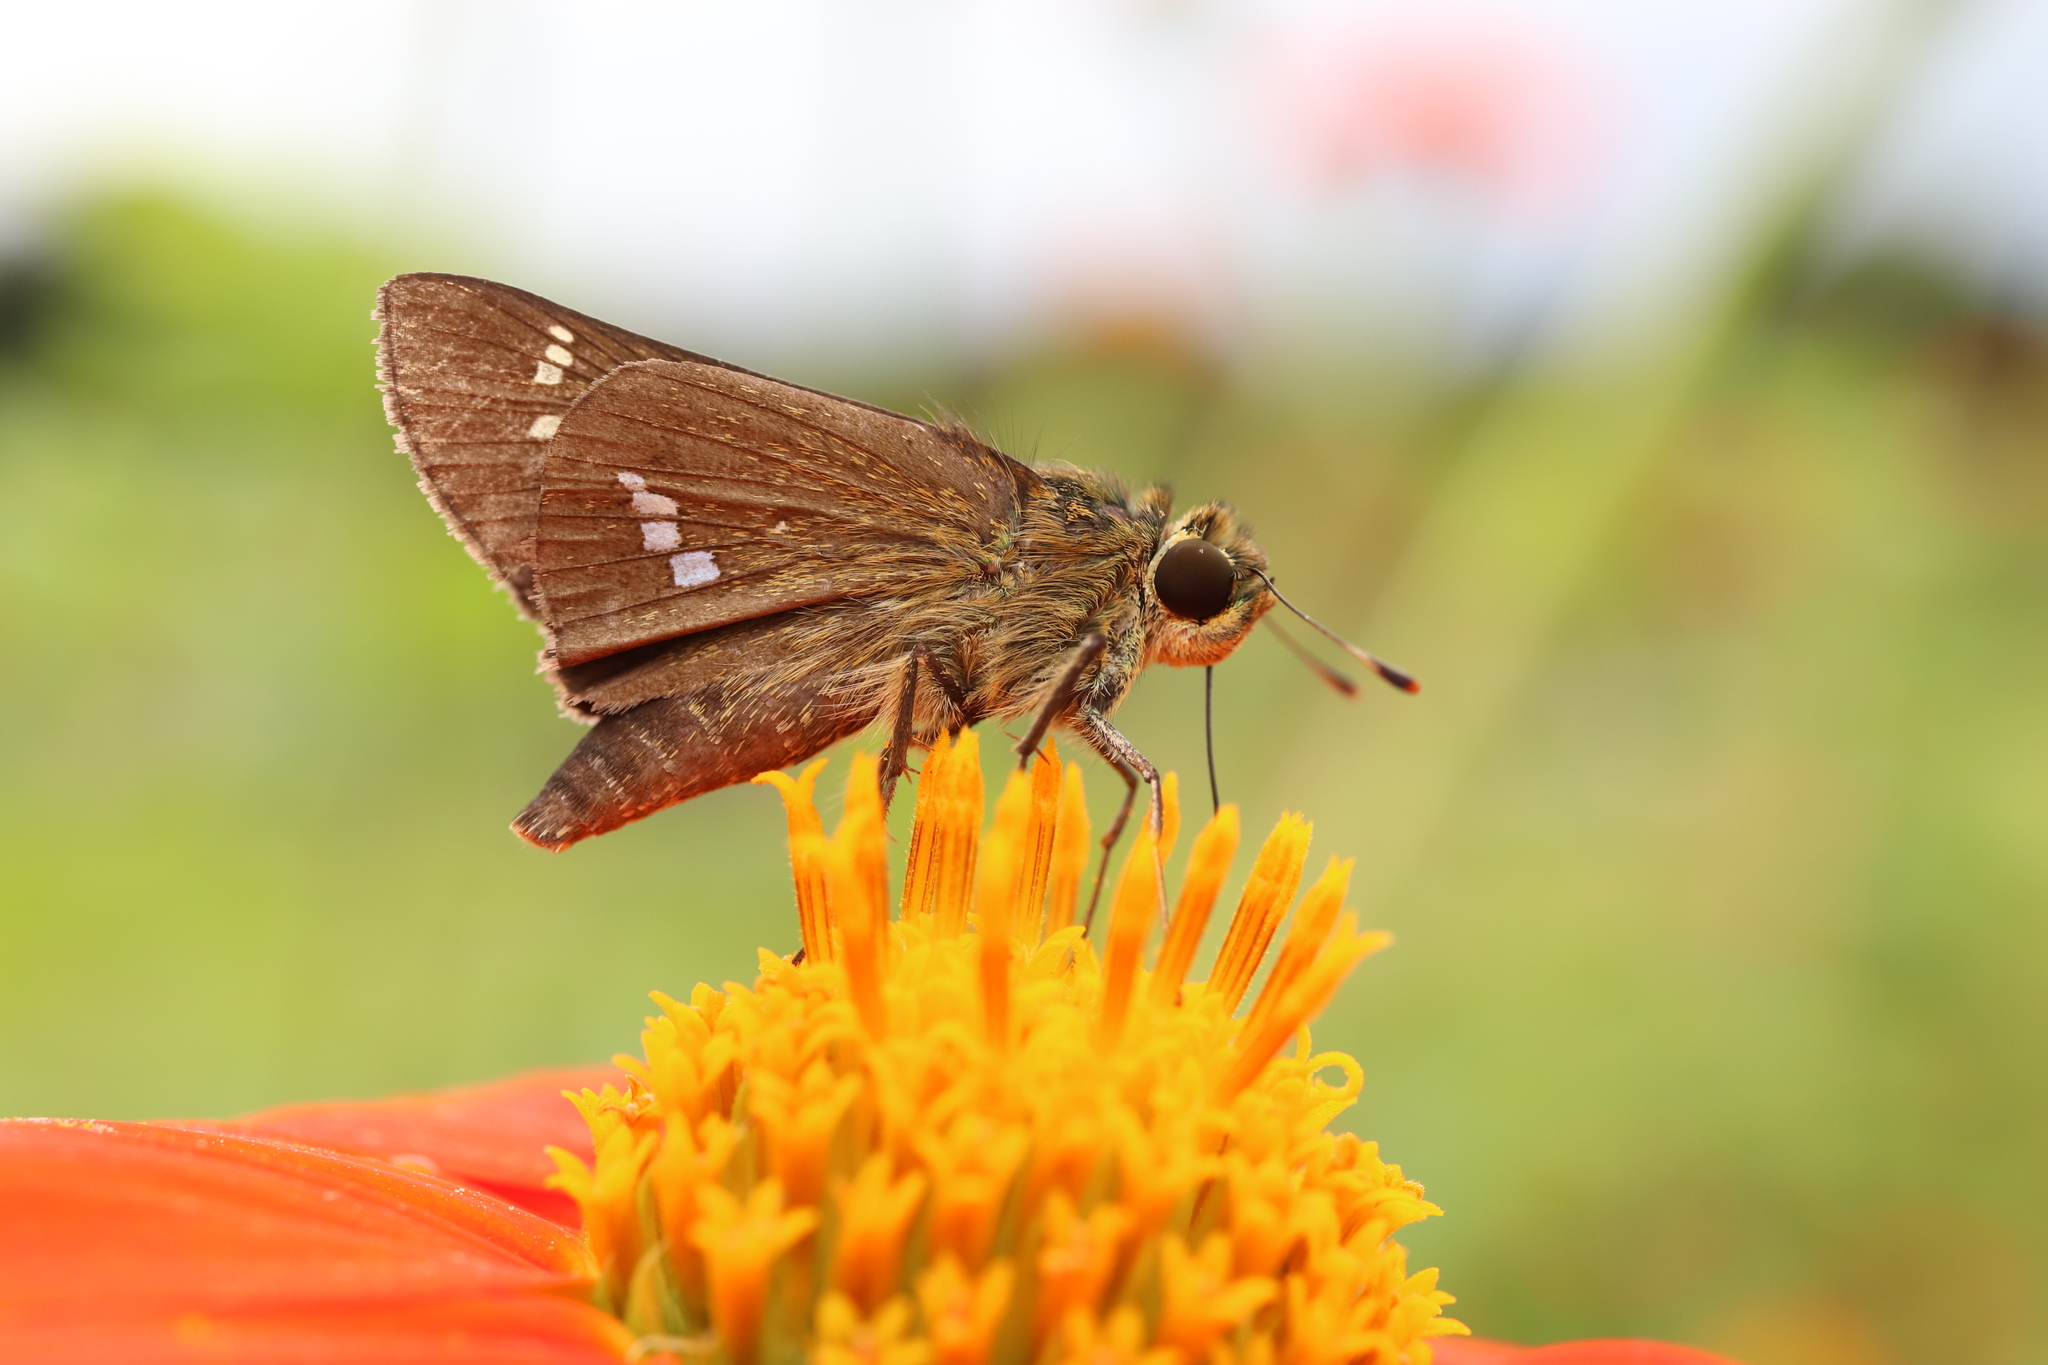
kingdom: Animalia
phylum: Arthropoda
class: Insecta
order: Lepidoptera
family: Hesperiidae
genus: Parnara
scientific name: Parnara guttatus
